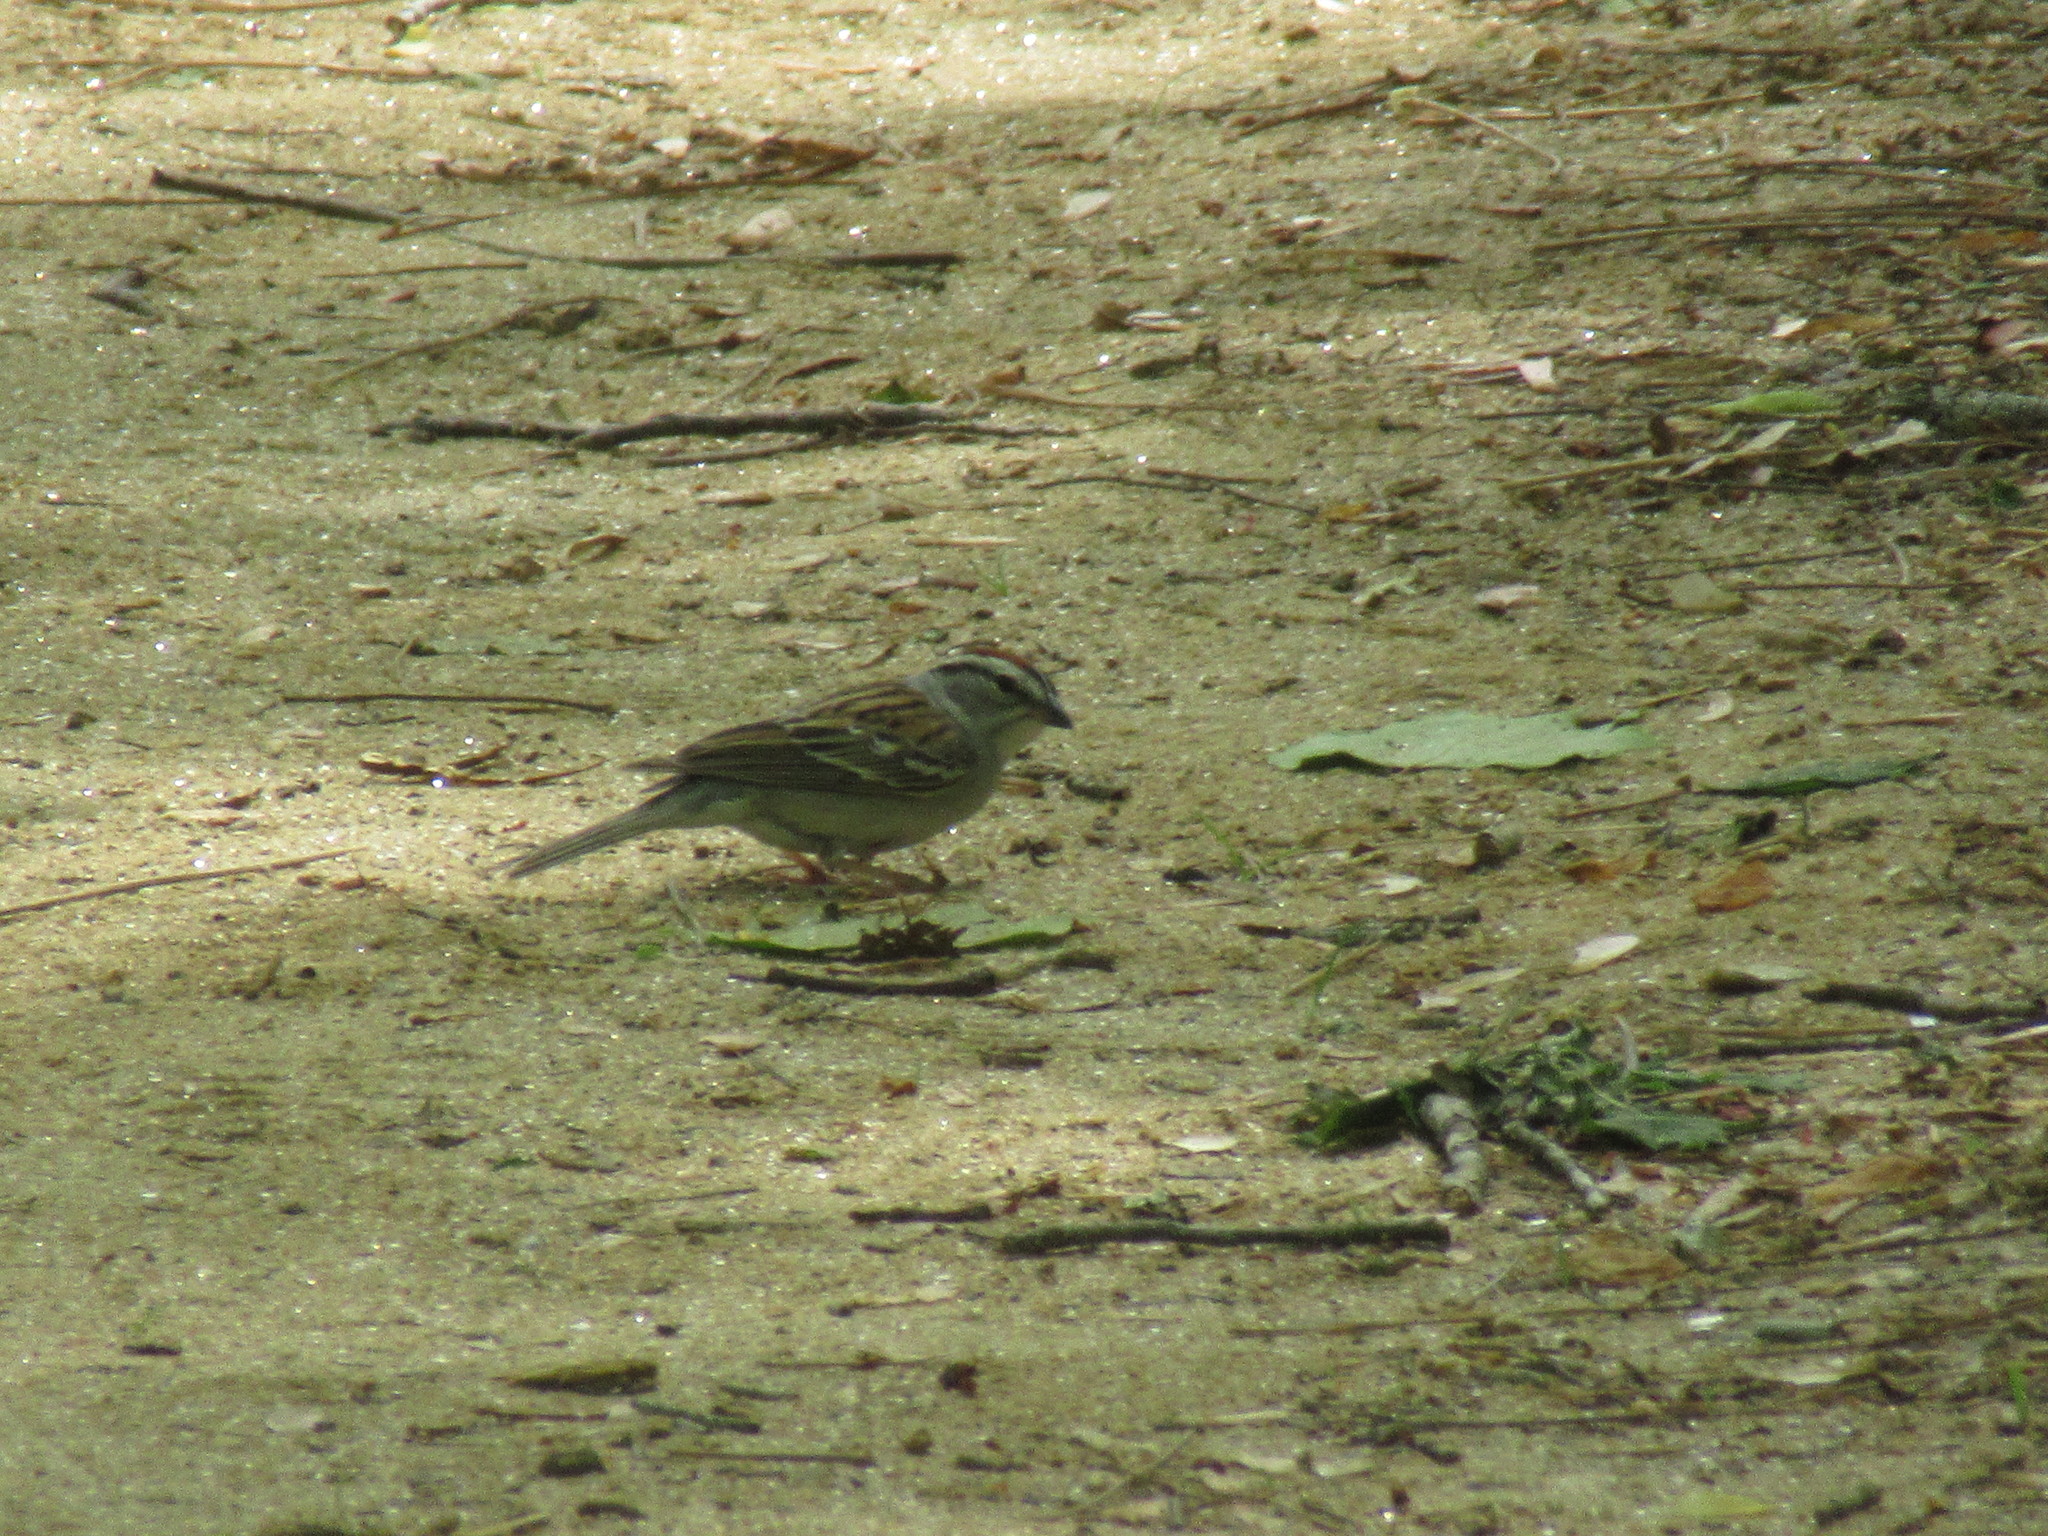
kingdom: Animalia
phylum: Chordata
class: Aves
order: Passeriformes
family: Passerellidae
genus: Spizella
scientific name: Spizella passerina
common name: Chipping sparrow
